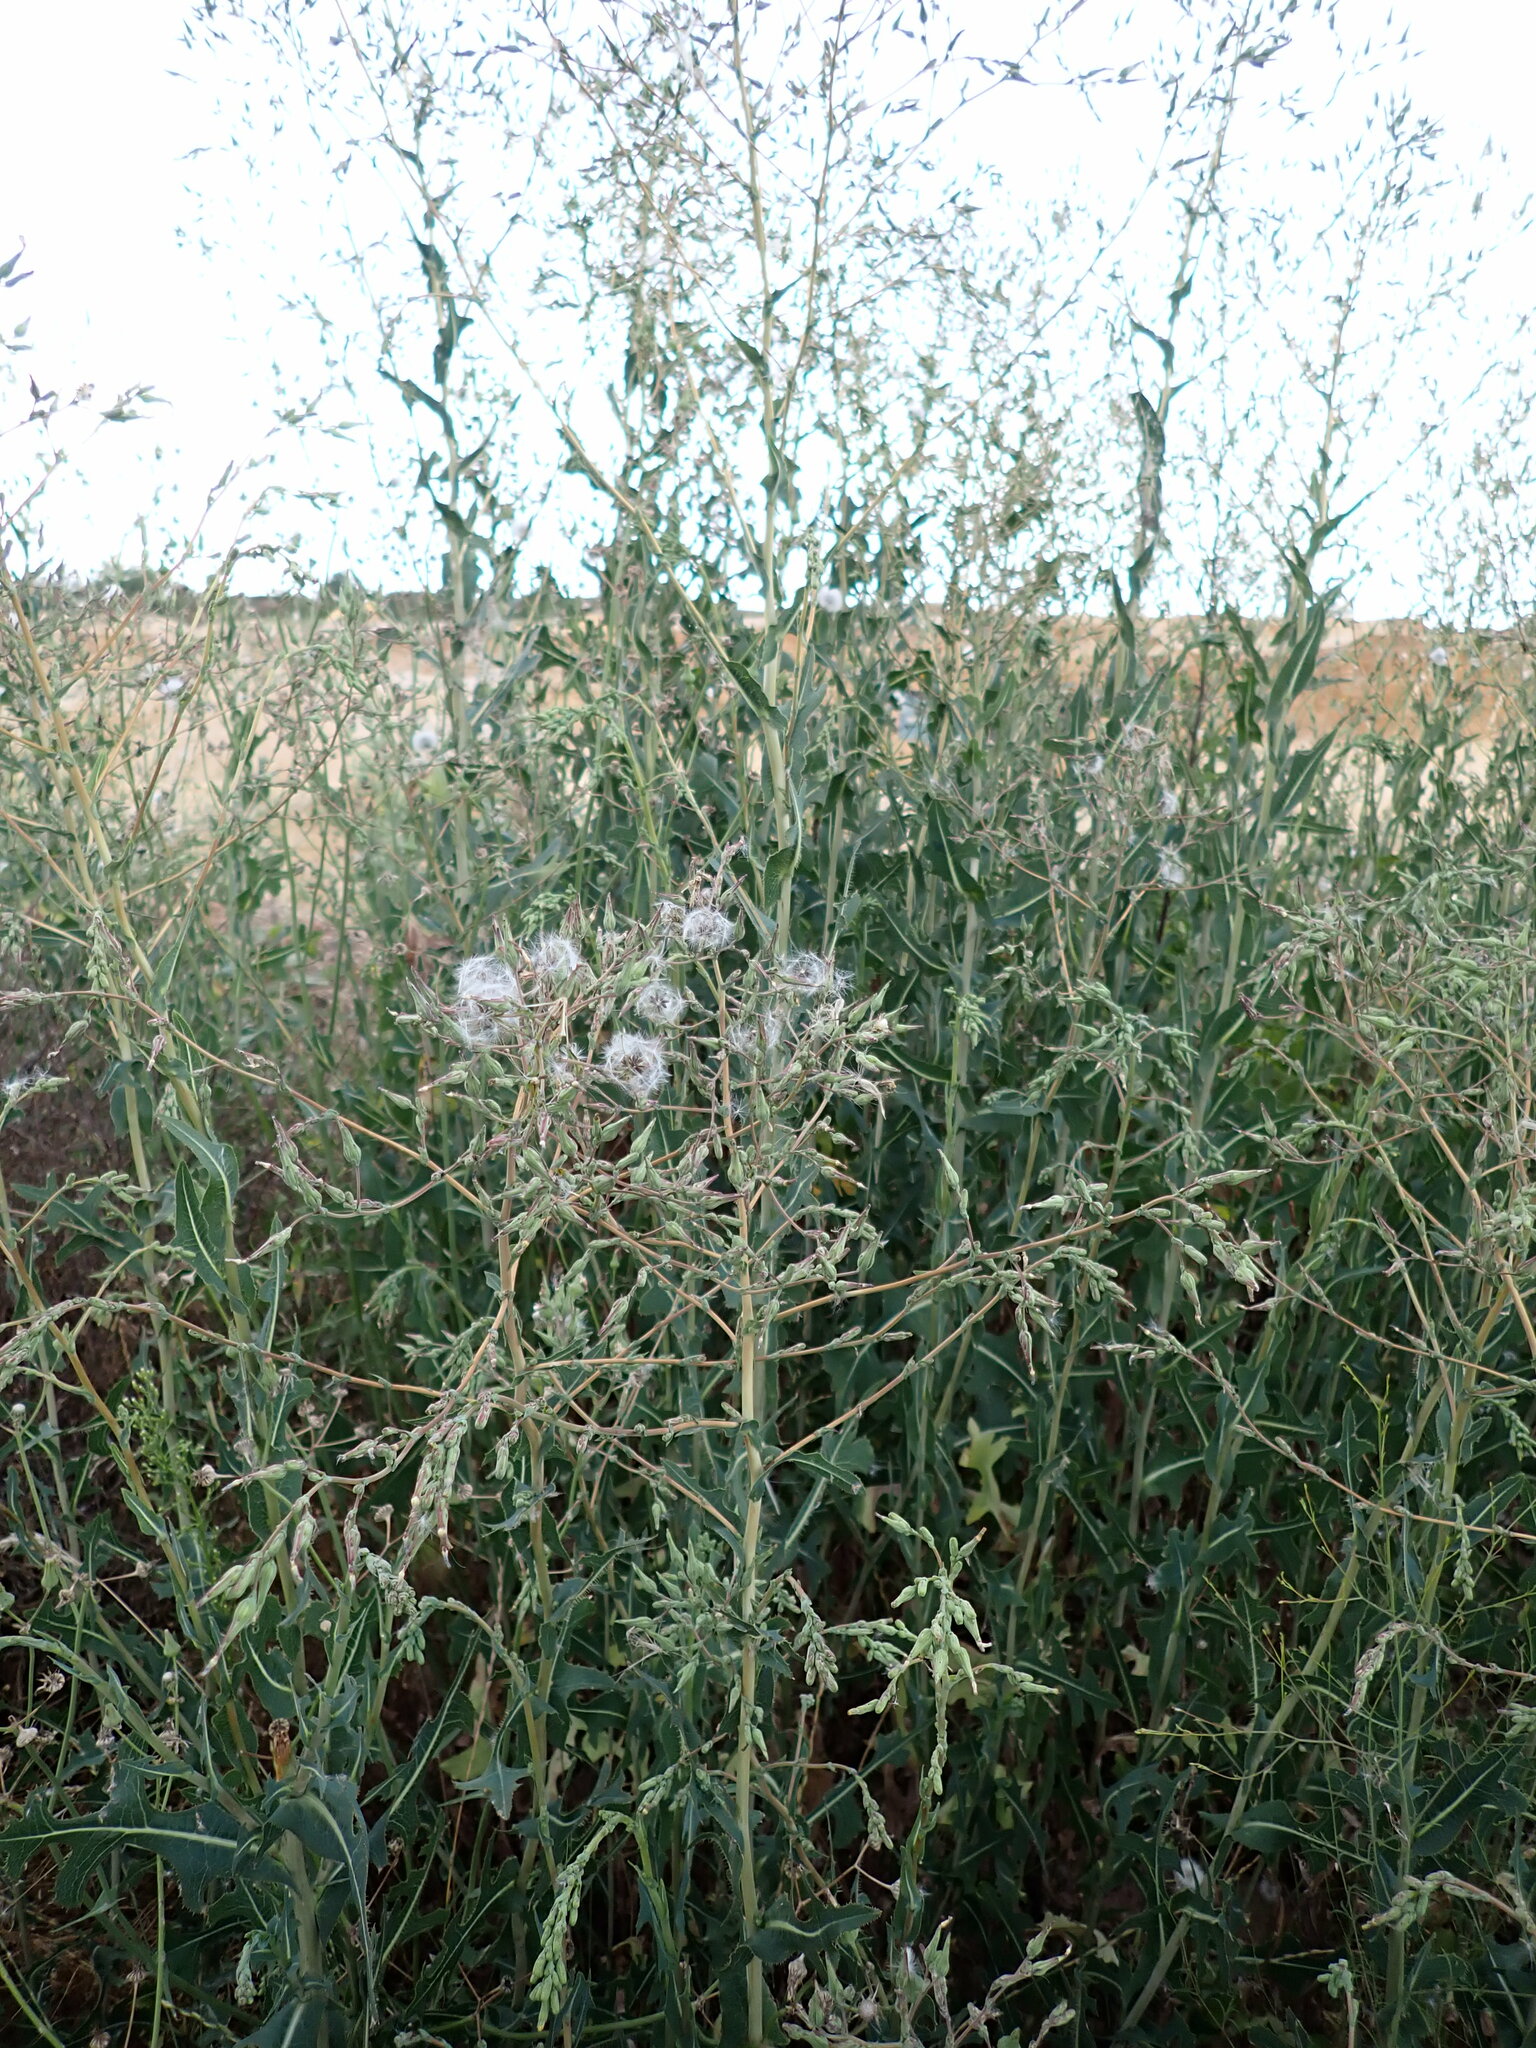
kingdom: Plantae
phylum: Tracheophyta
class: Magnoliopsida
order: Asterales
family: Asteraceae
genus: Lactuca
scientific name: Lactuca serriola
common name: Prickly lettuce
